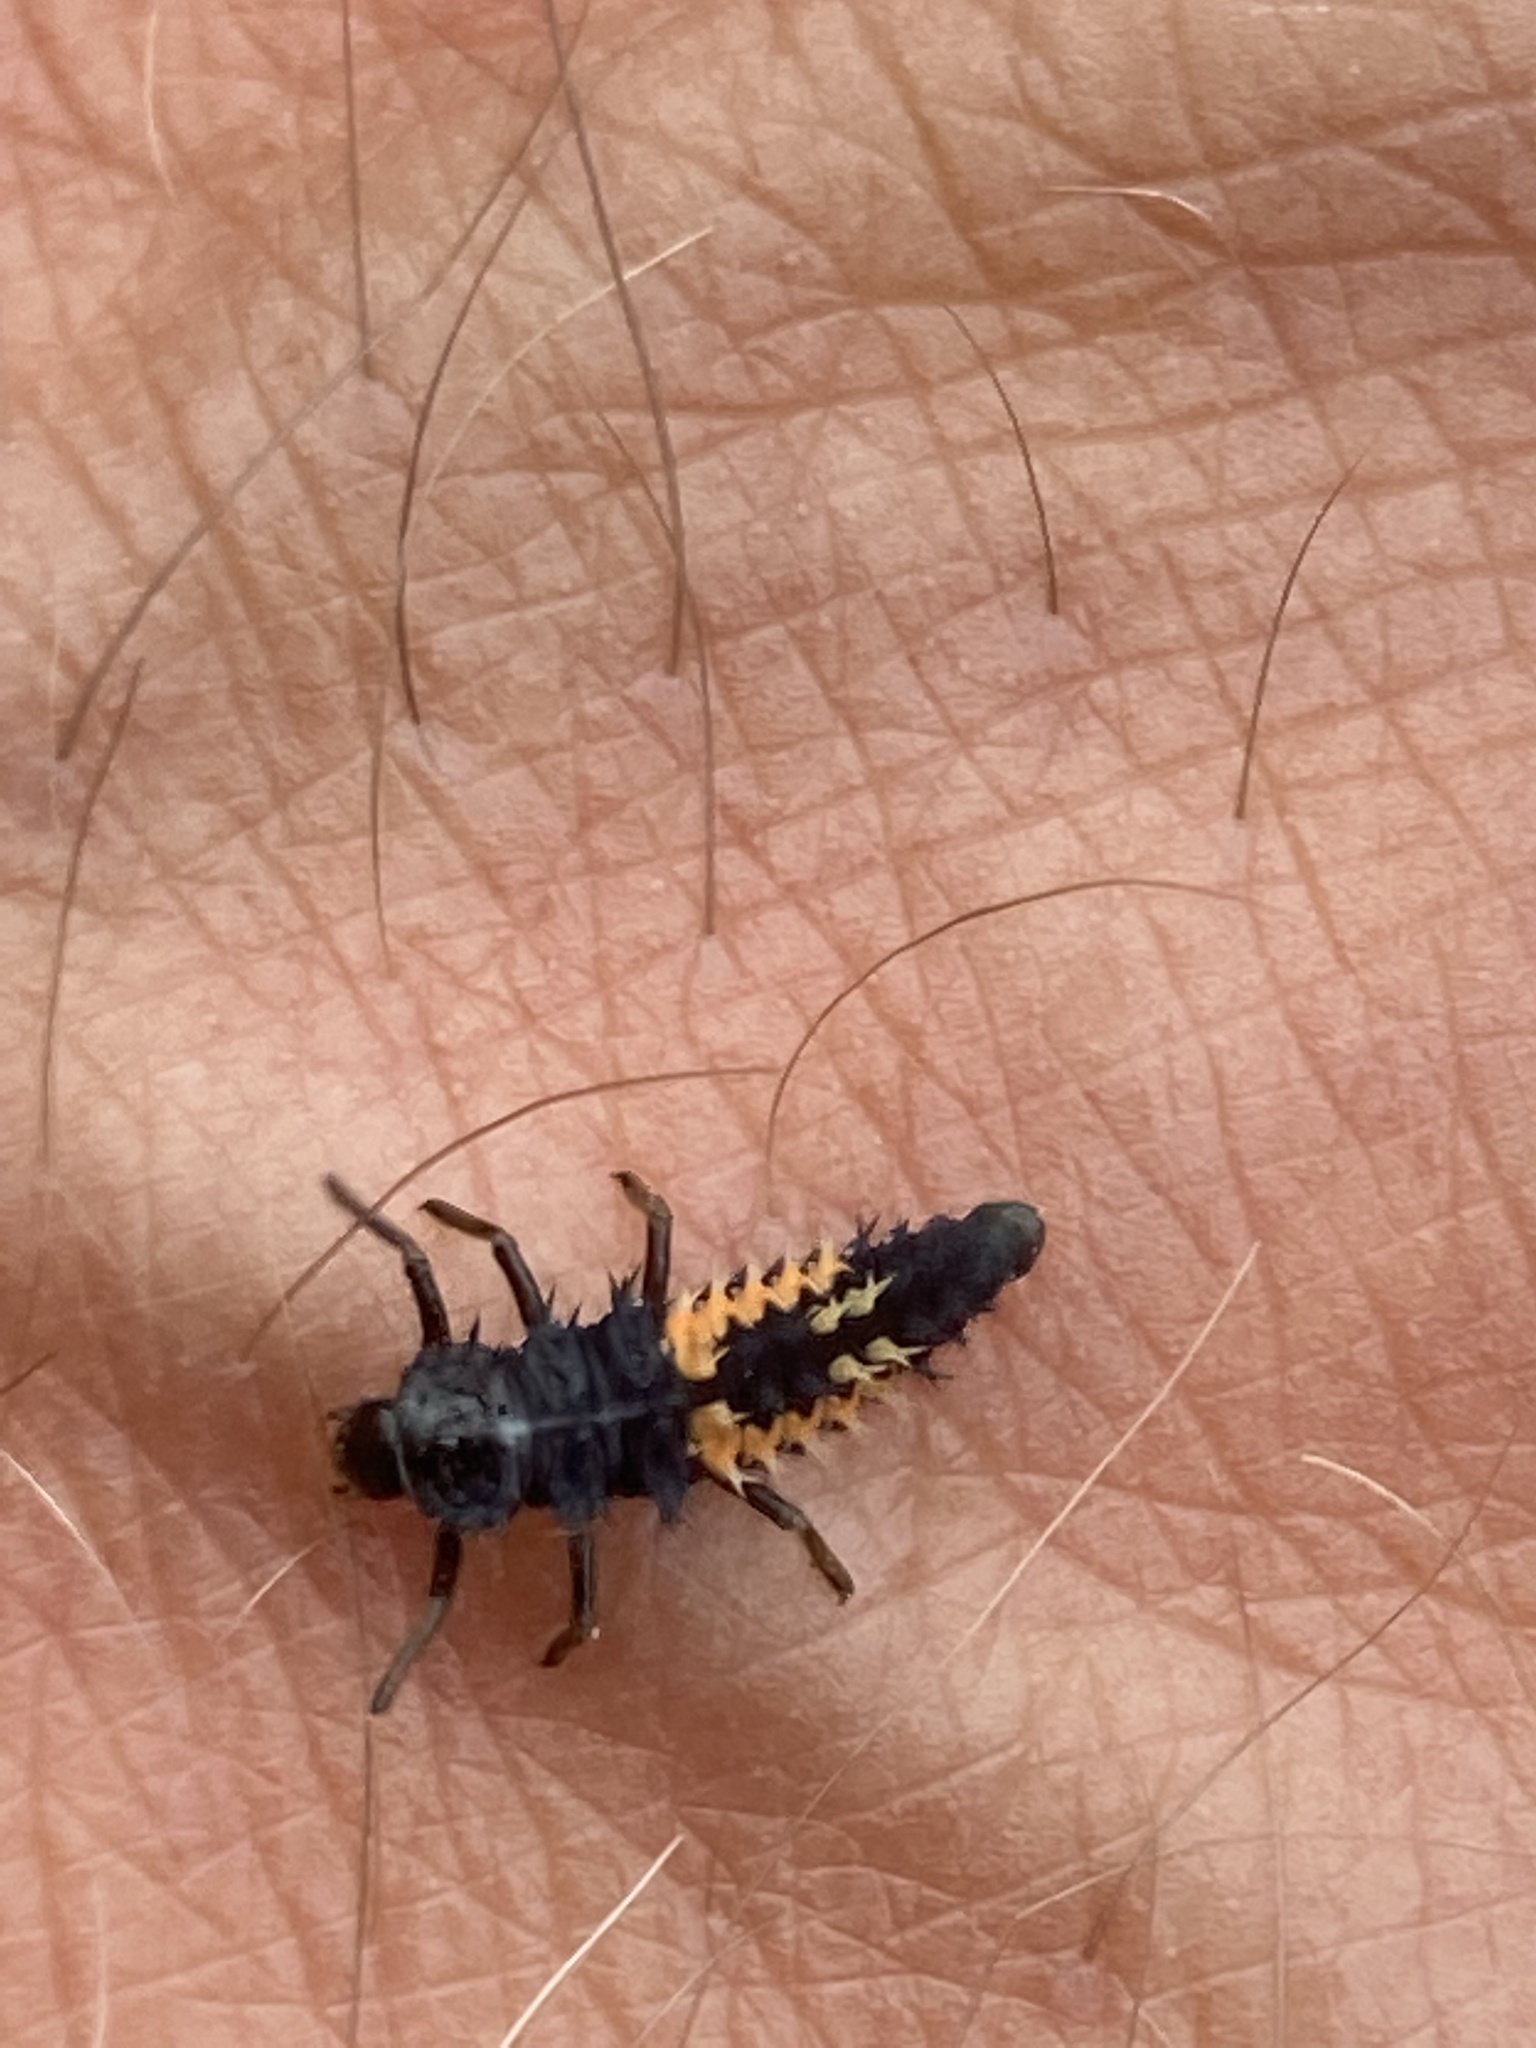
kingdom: Animalia
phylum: Arthropoda
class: Insecta
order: Coleoptera
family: Coccinellidae
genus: Harmonia
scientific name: Harmonia axyridis
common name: Harlequin ladybird
